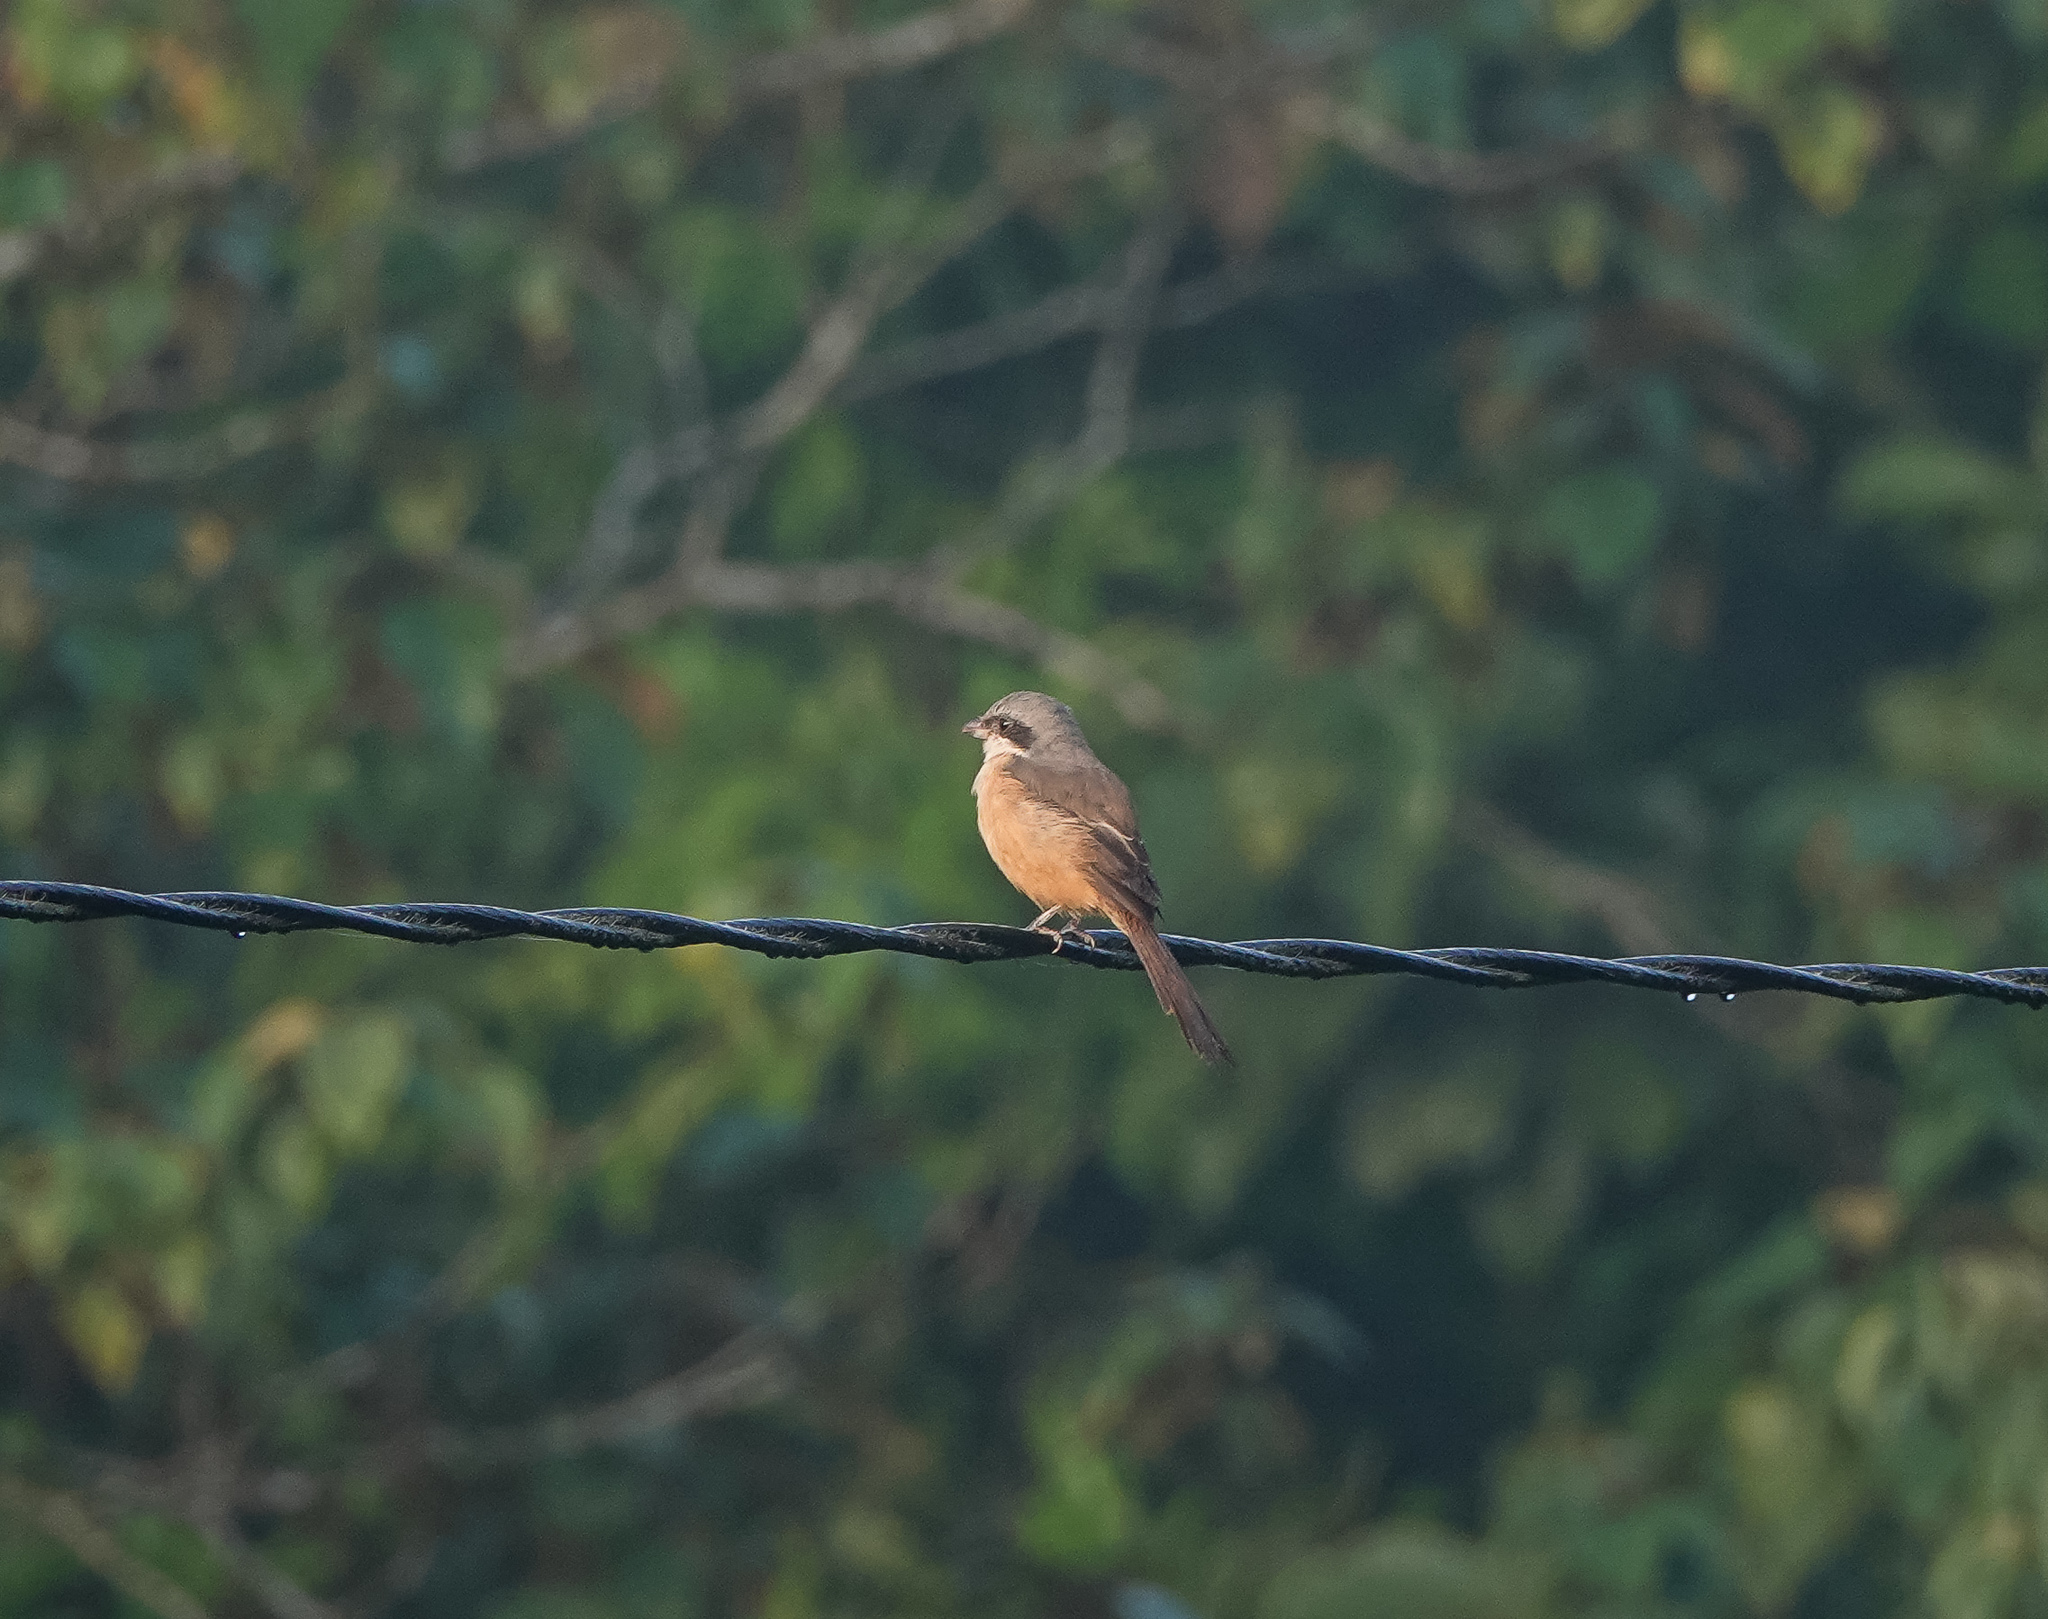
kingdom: Animalia
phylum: Chordata
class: Aves
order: Passeriformes
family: Laniidae
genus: Lanius
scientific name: Lanius cristatus
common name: Brown shrike
